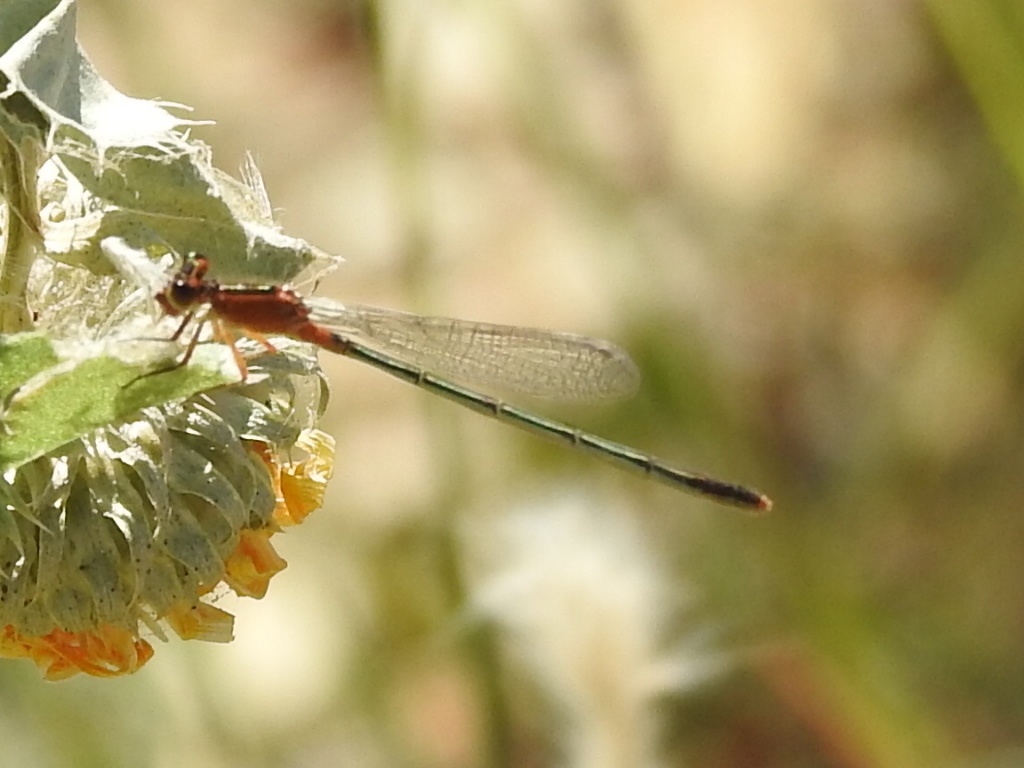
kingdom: Animalia
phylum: Arthropoda
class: Insecta
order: Odonata
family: Coenagrionidae
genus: Ischnura
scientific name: Ischnura ramburii
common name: Rambur's forktail
